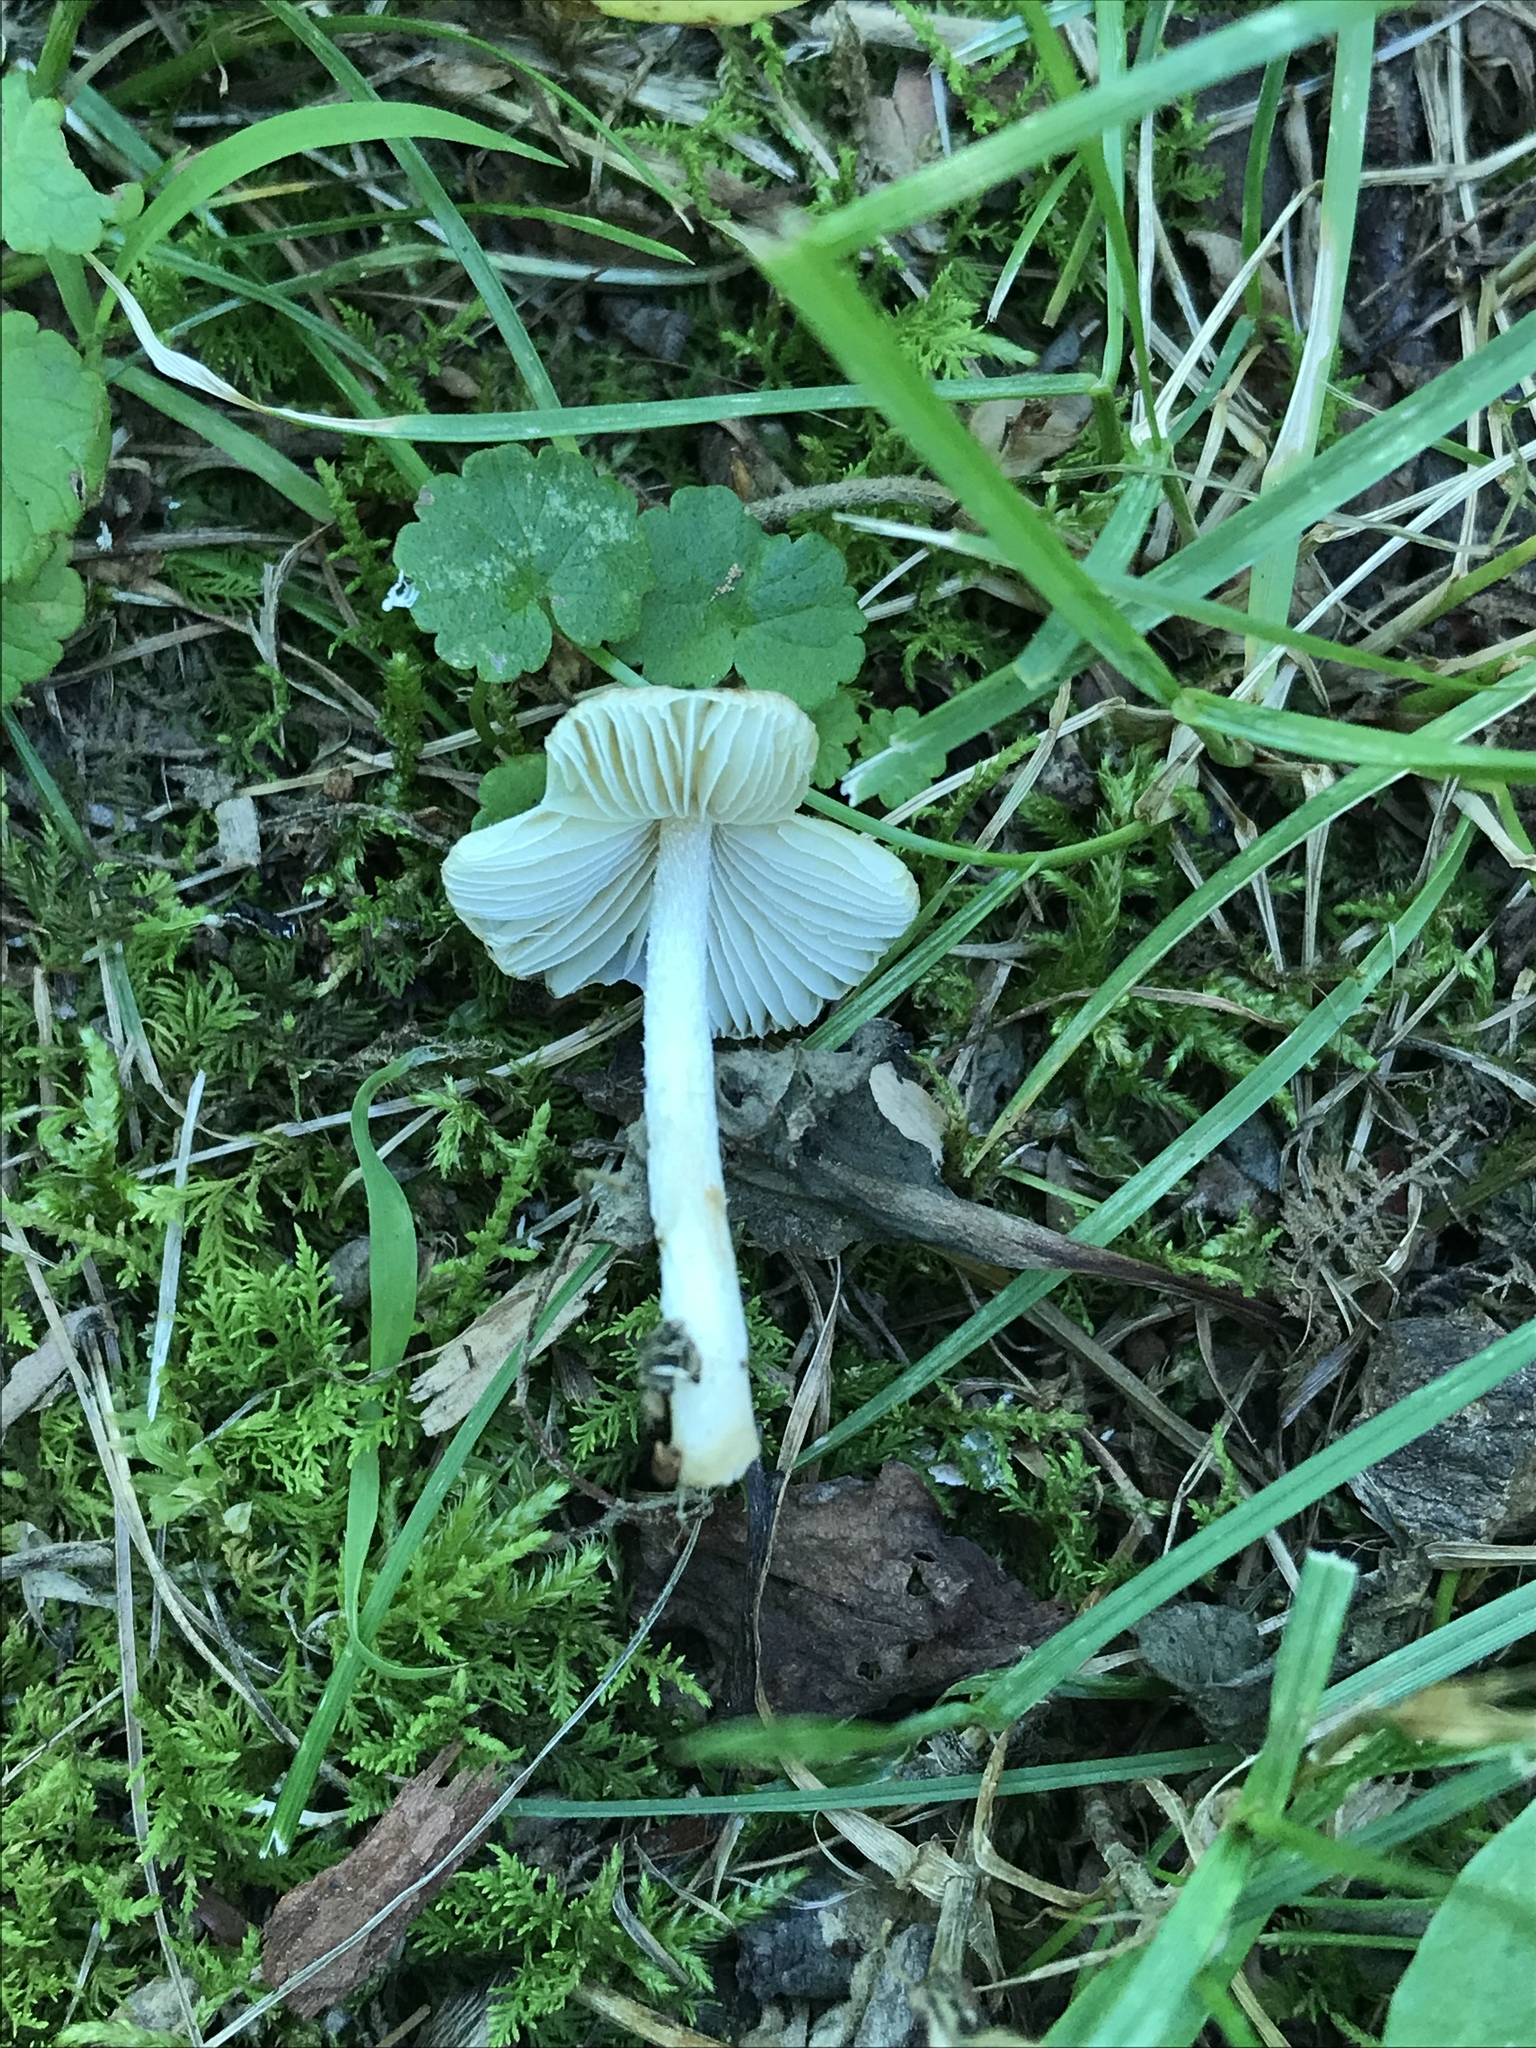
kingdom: Fungi
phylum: Basidiomycota
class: Agaricomycetes
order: Agaricales
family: Inocybaceae
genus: Pseudosperma
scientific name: Pseudosperma friabile
